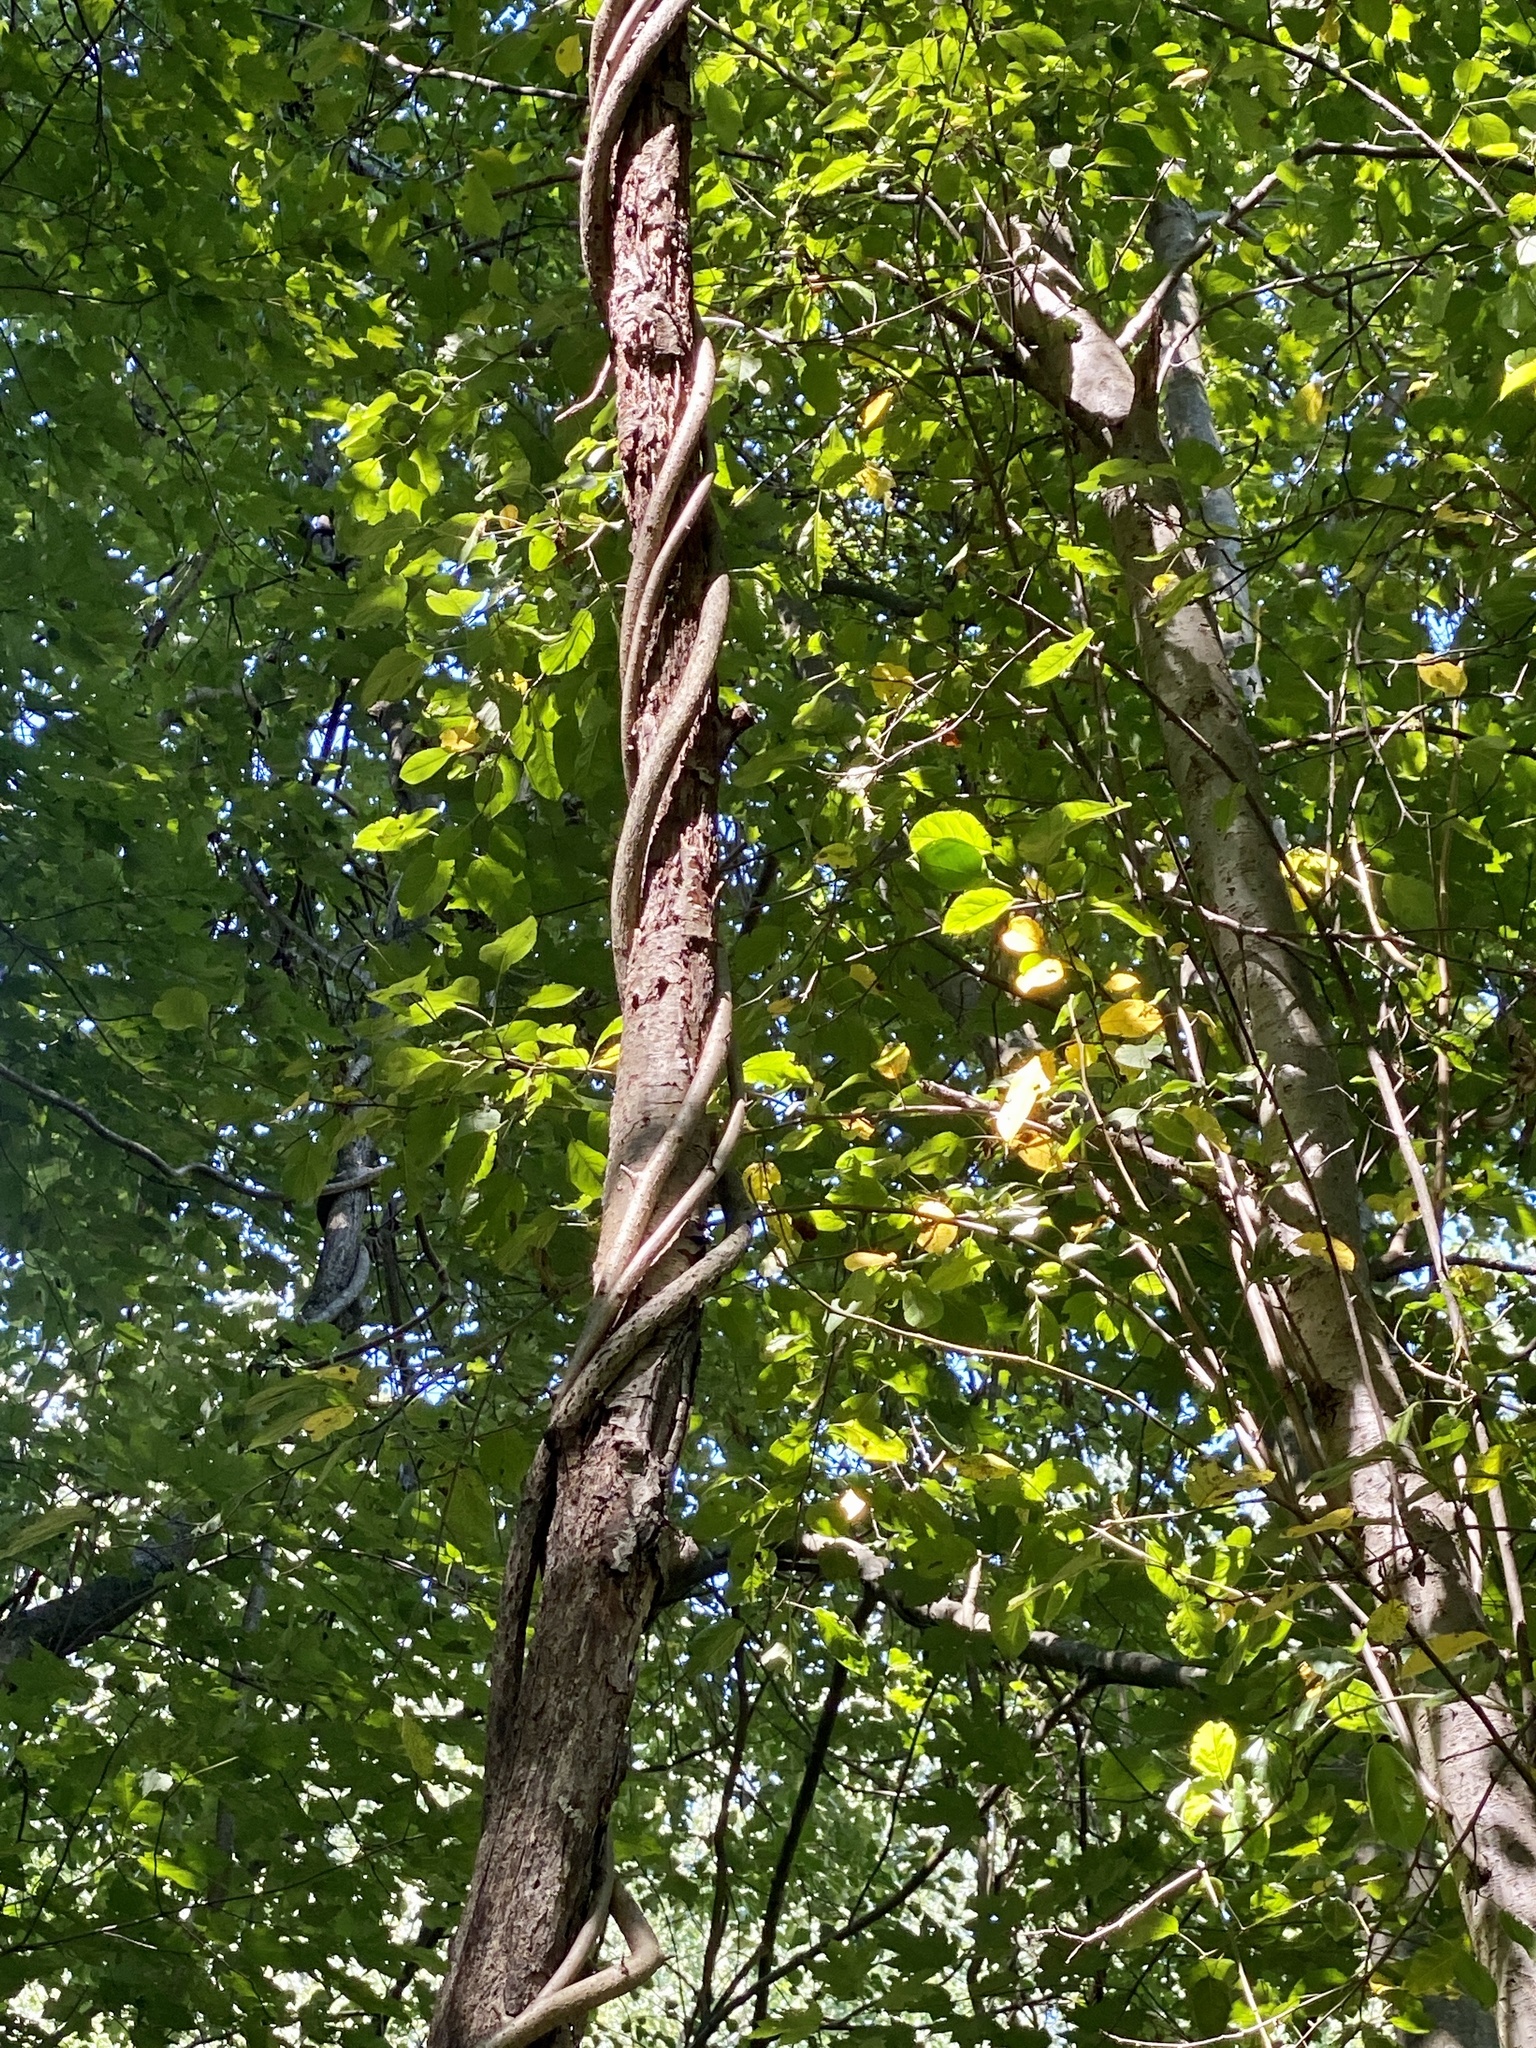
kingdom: Plantae
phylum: Tracheophyta
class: Magnoliopsida
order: Celastrales
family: Celastraceae
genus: Celastrus
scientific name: Celastrus orbiculatus
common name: Oriental bittersweet
